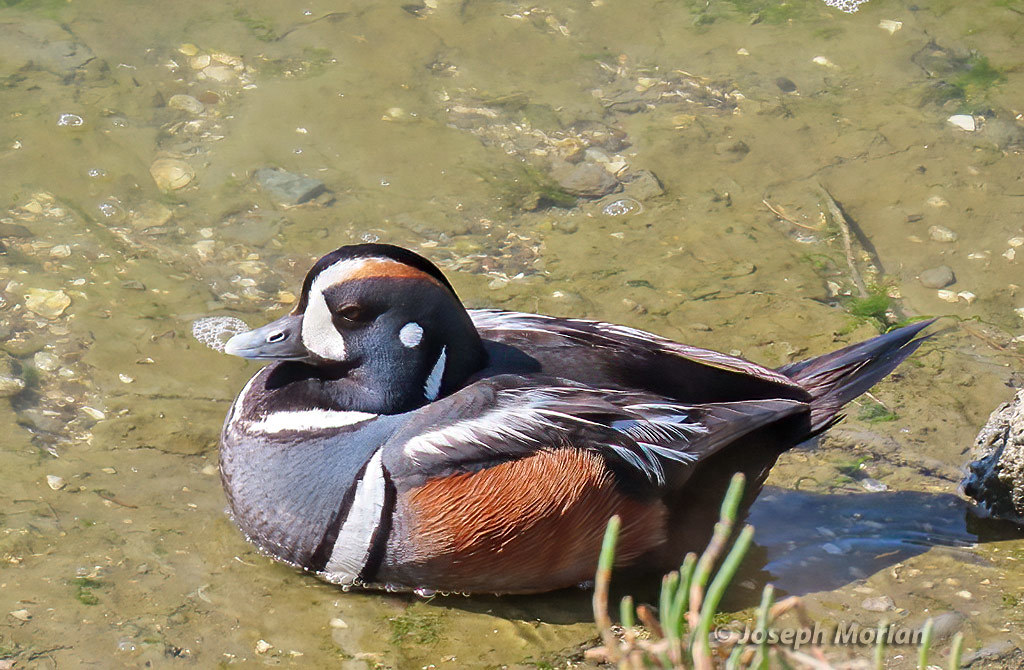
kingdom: Animalia
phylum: Chordata
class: Aves
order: Anseriformes
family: Anatidae
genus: Histrionicus
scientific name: Histrionicus histrionicus
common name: Harlequin duck
